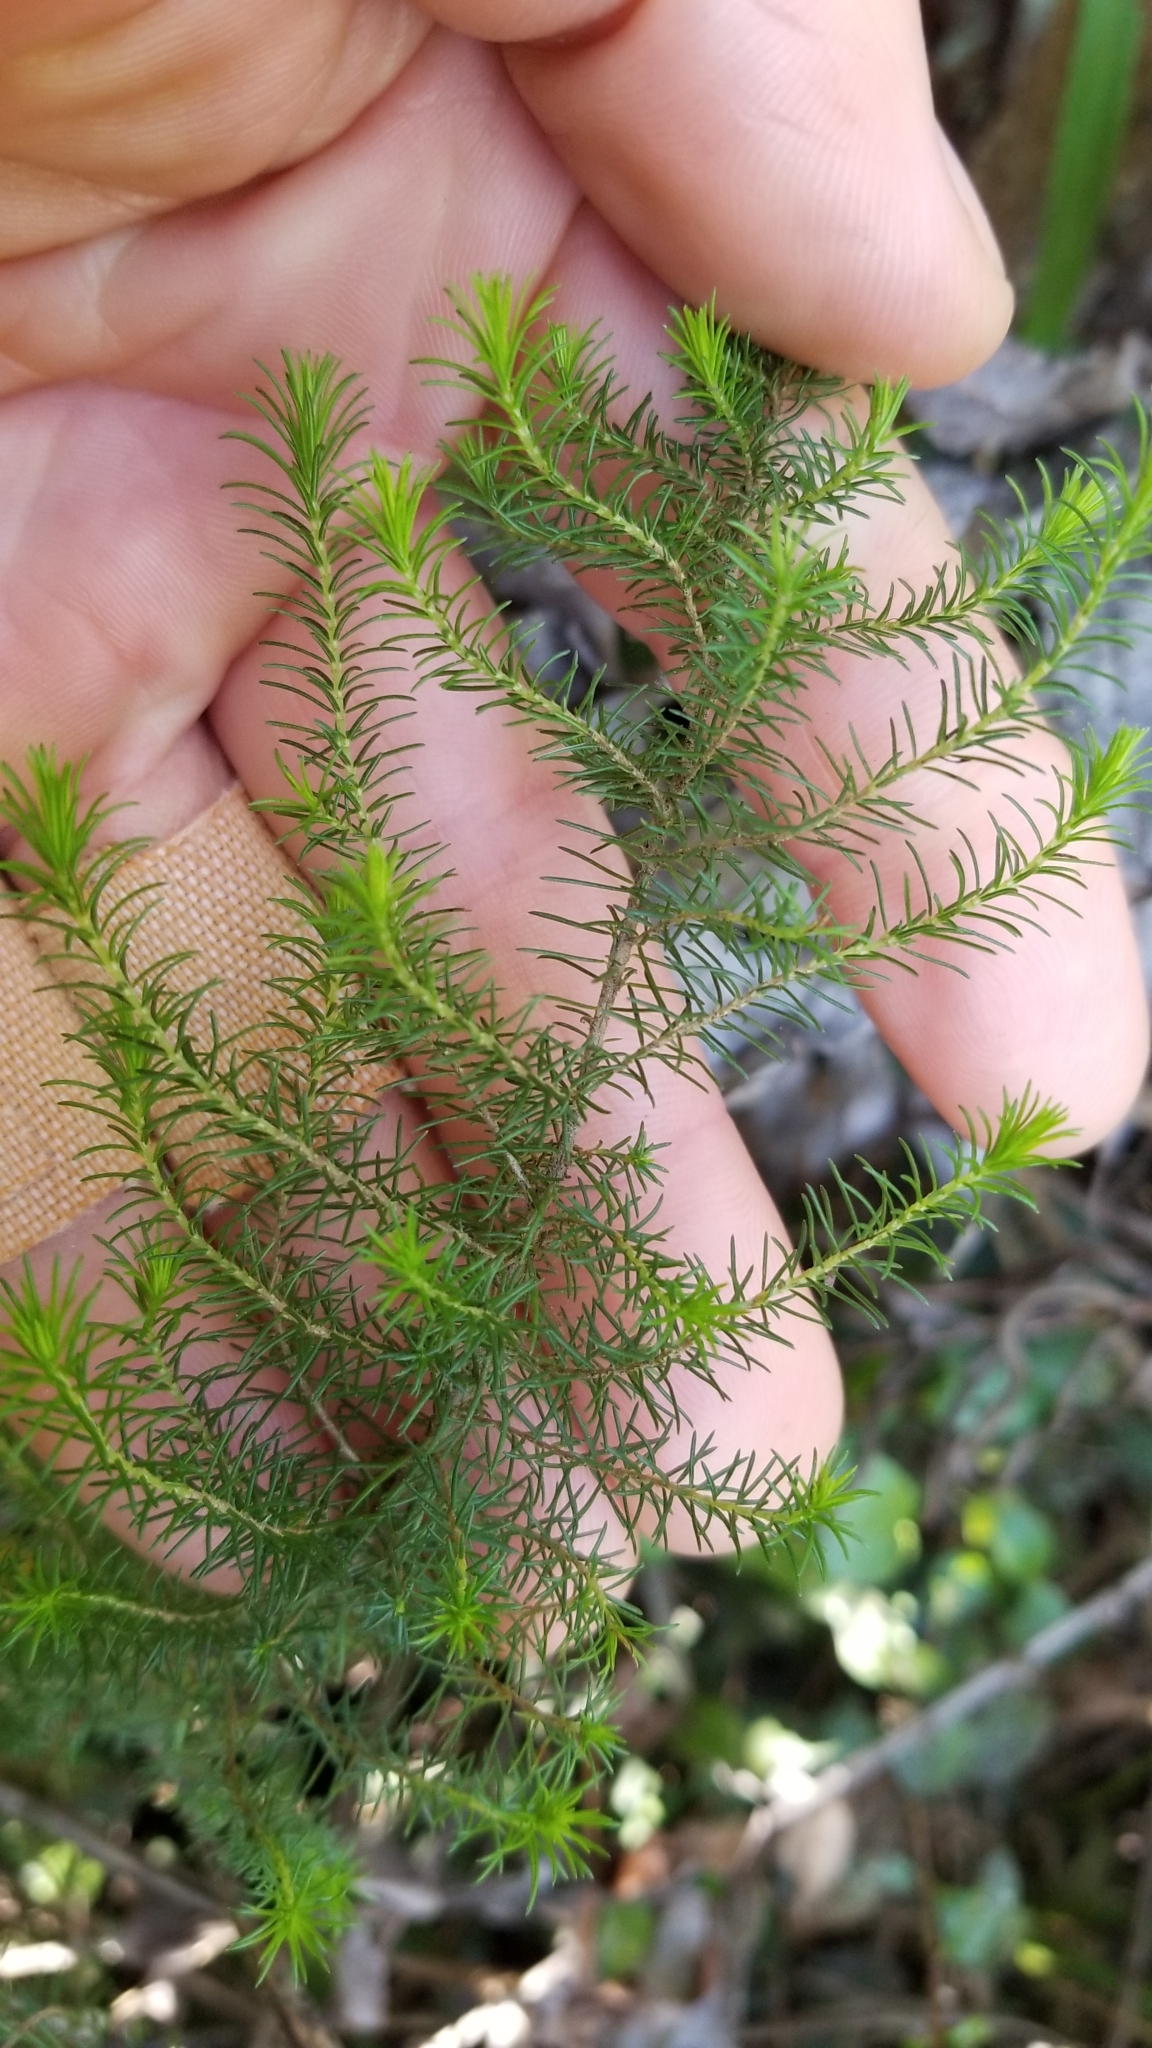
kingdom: Plantae
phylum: Tracheophyta
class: Magnoliopsida
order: Ericales
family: Ericaceae
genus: Erica
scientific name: Erica lusitanica
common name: Spanish heath
